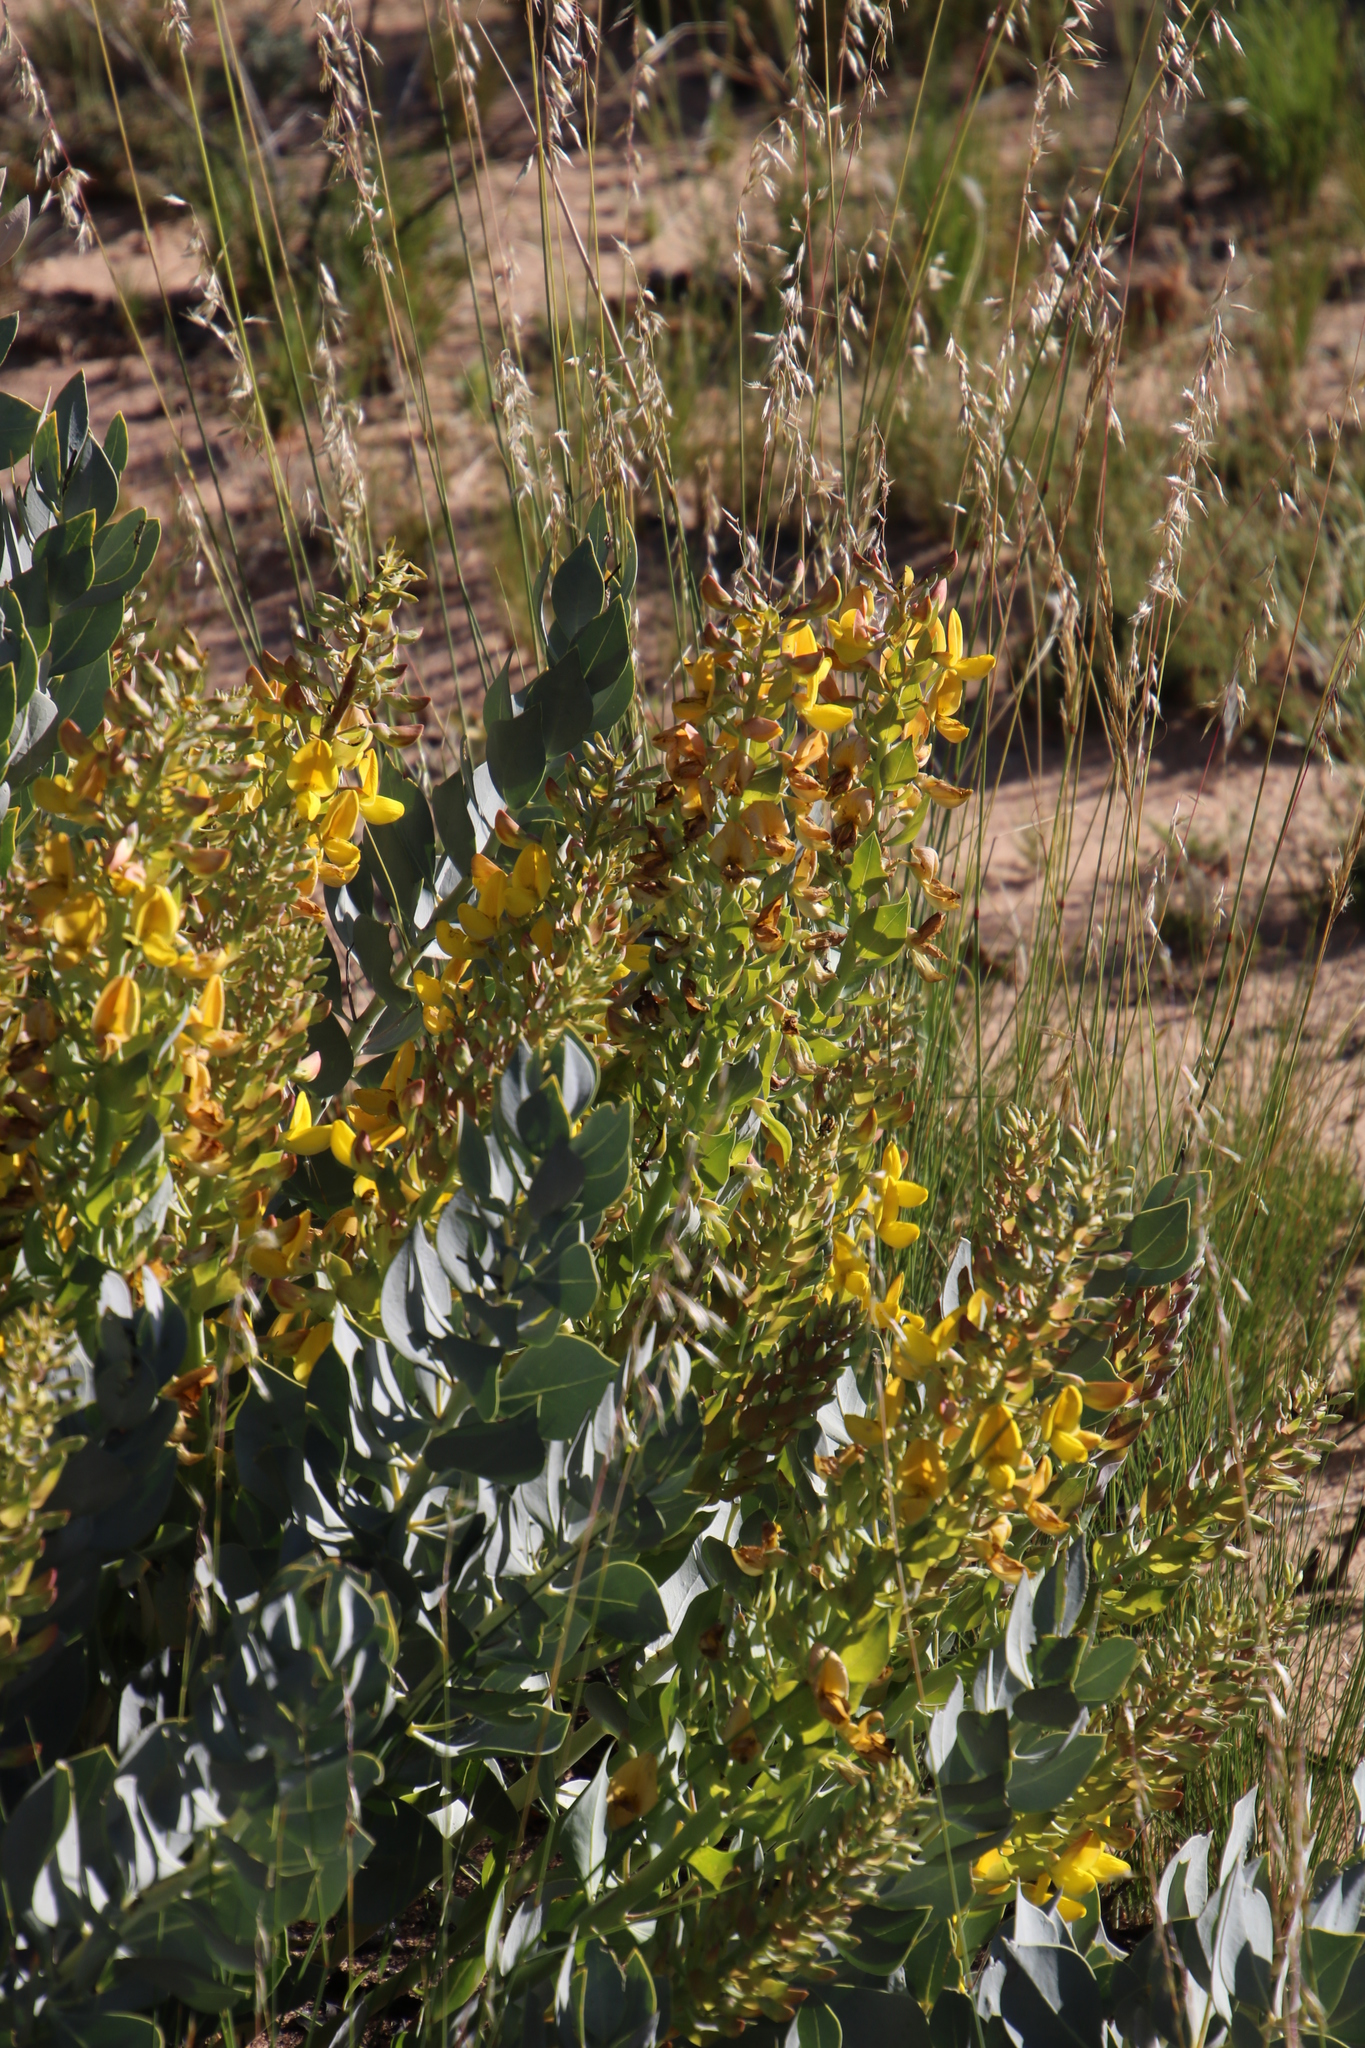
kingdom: Plantae
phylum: Tracheophyta
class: Magnoliopsida
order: Fabales
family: Fabaceae
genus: Rafnia
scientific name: Rafnia triflora
